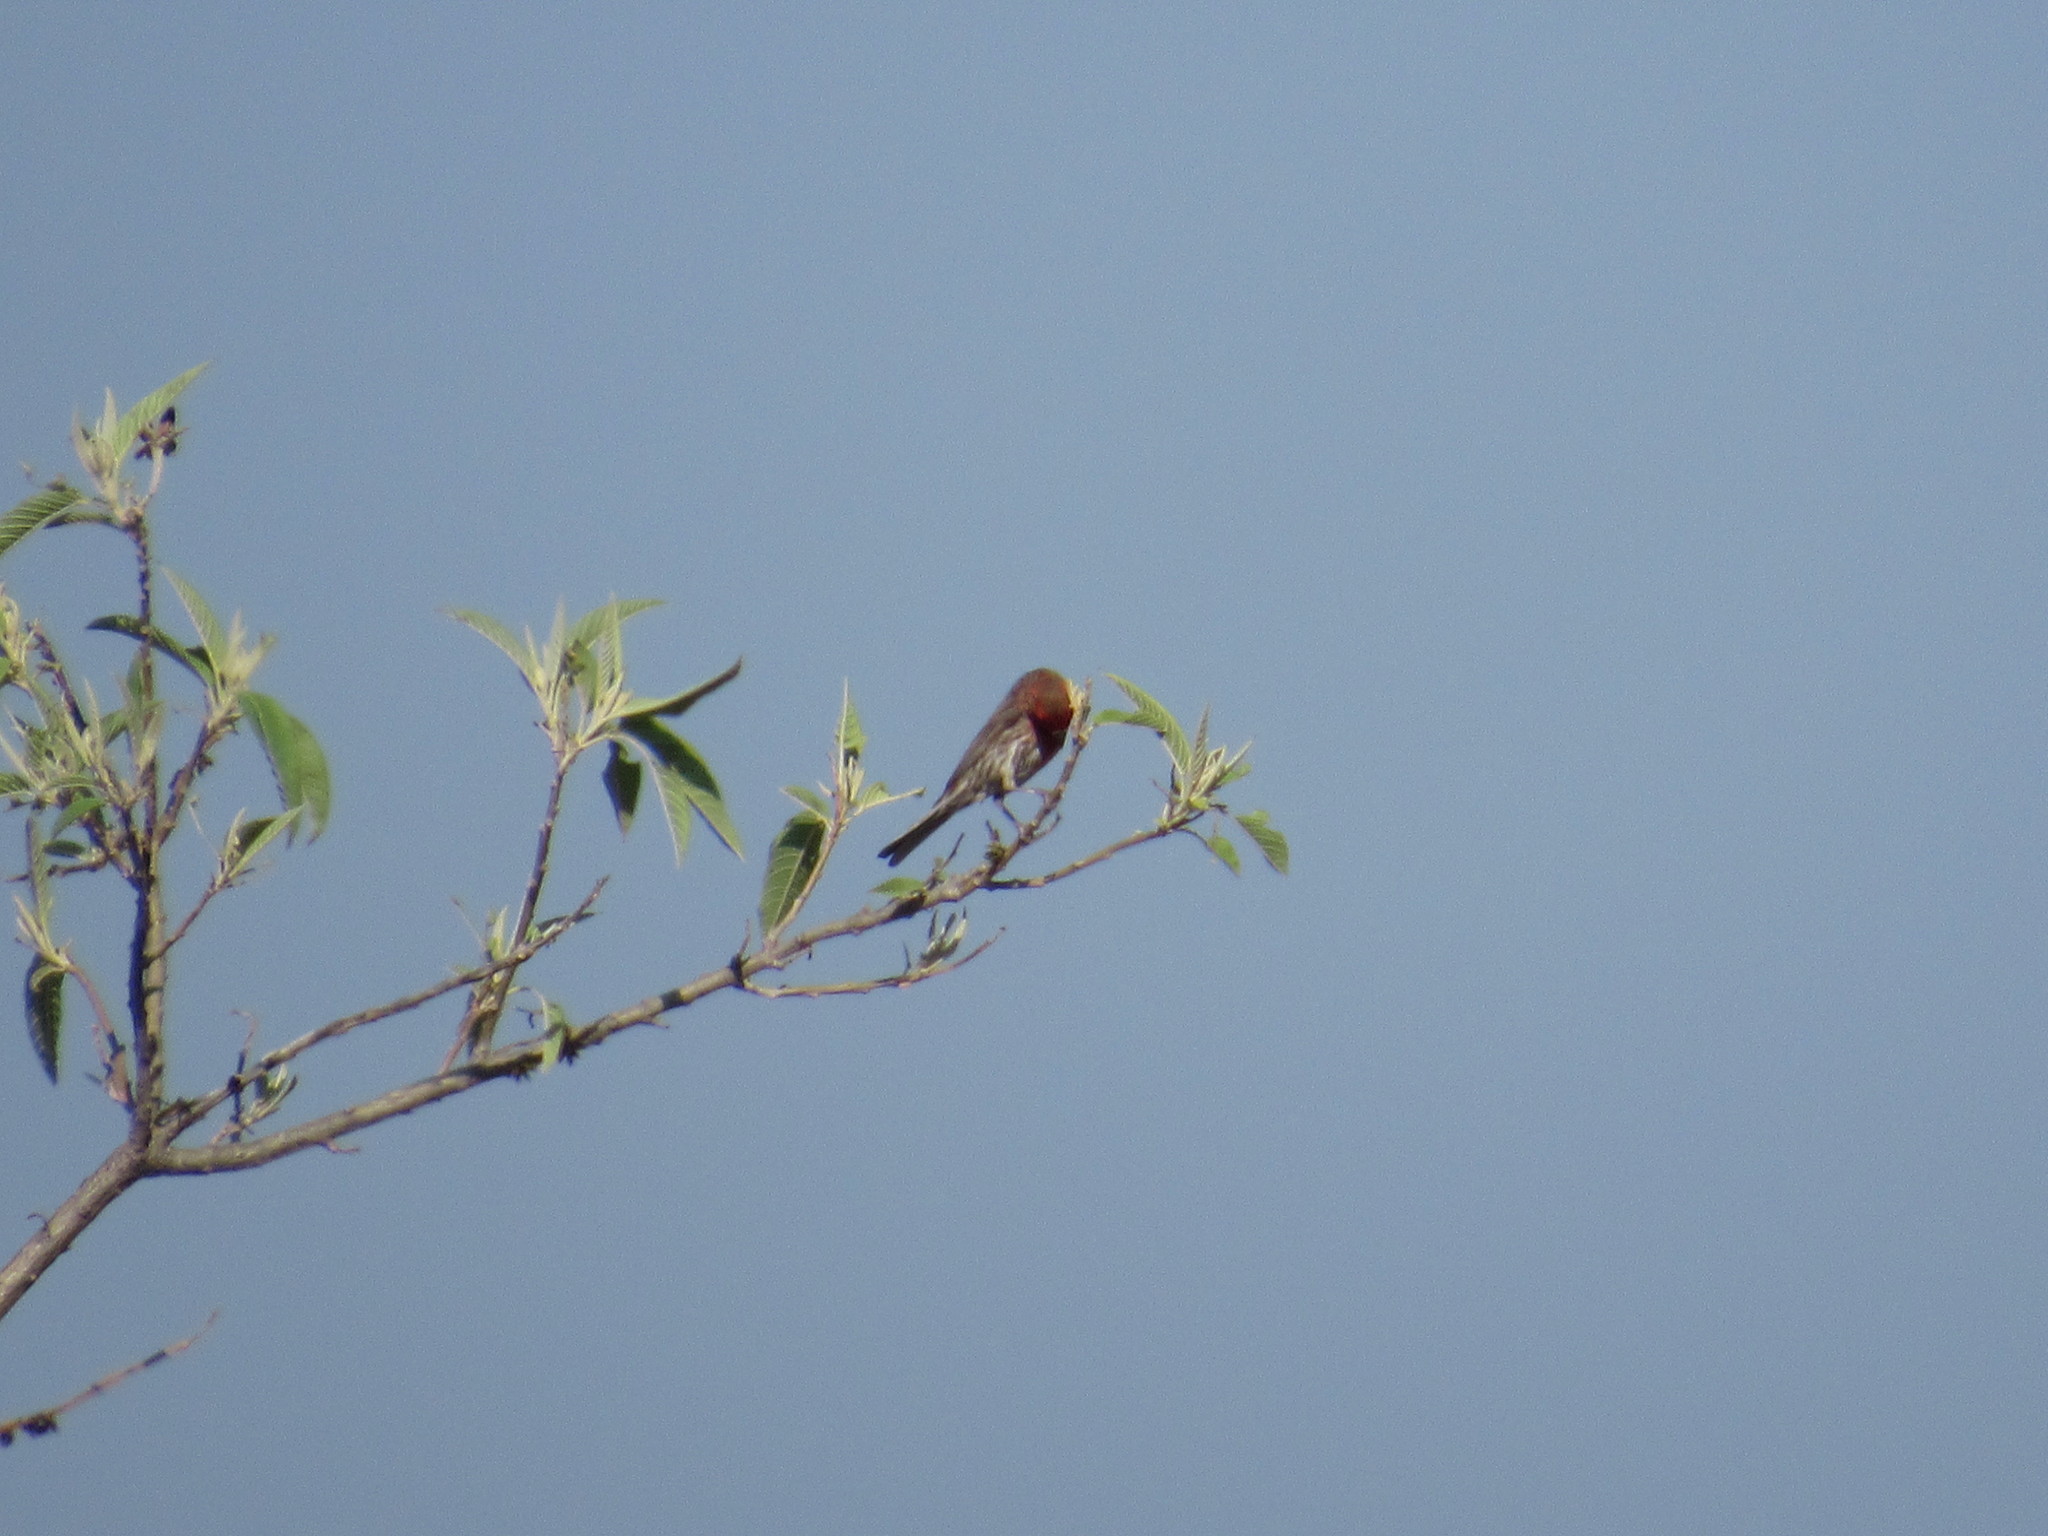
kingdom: Animalia
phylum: Chordata
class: Aves
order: Passeriformes
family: Fringillidae
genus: Haemorhous
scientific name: Haemorhous mexicanus
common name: House finch
